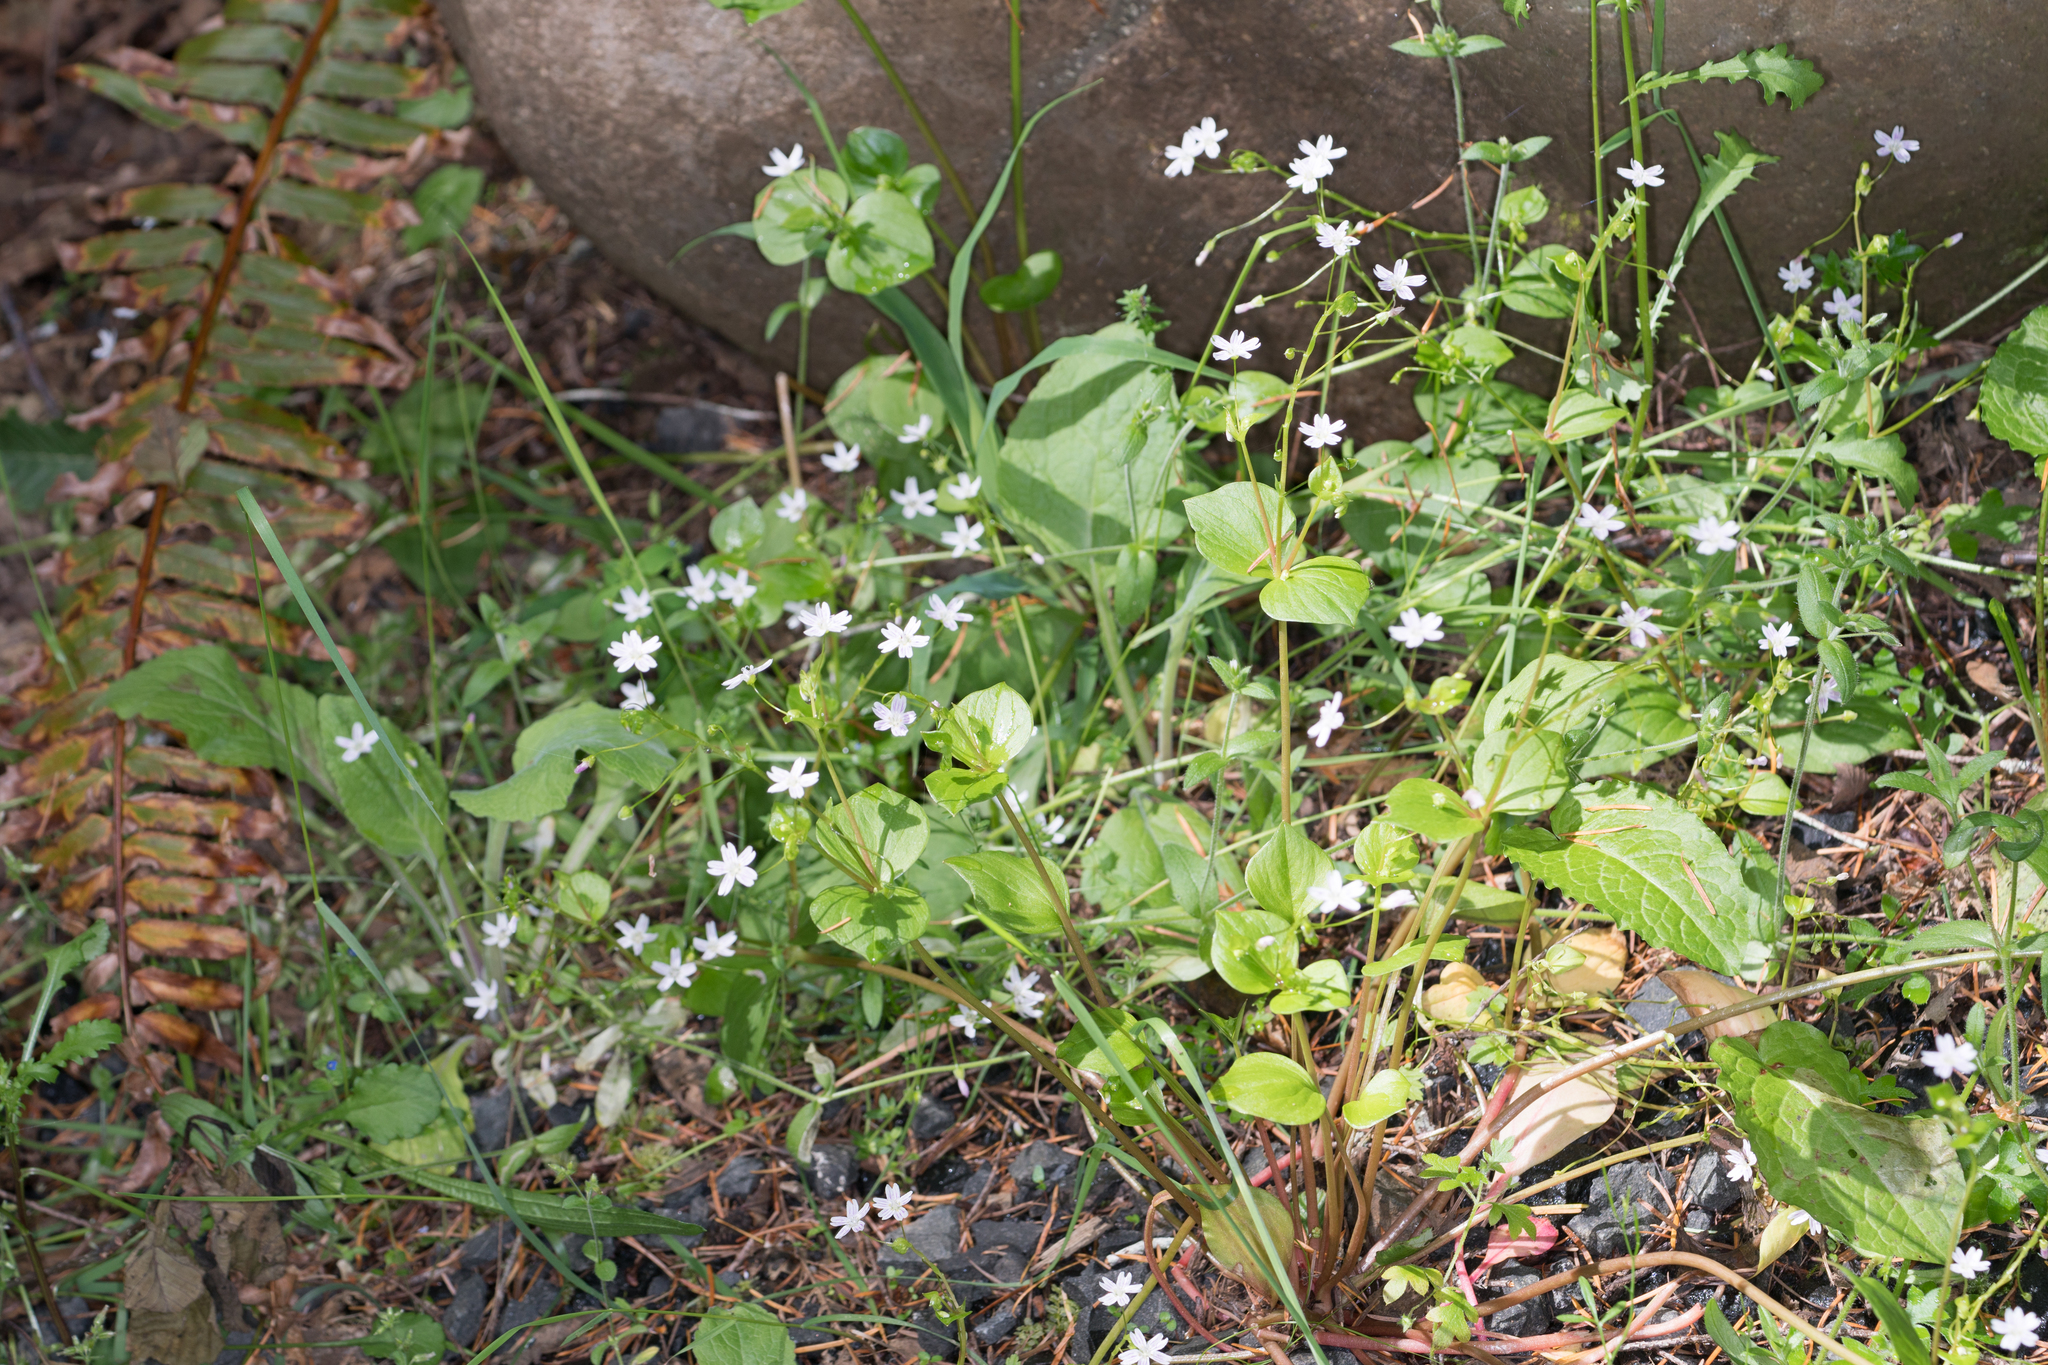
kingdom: Plantae
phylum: Tracheophyta
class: Magnoliopsida
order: Caryophyllales
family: Montiaceae
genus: Claytonia
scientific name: Claytonia sibirica
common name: Pink purslane
